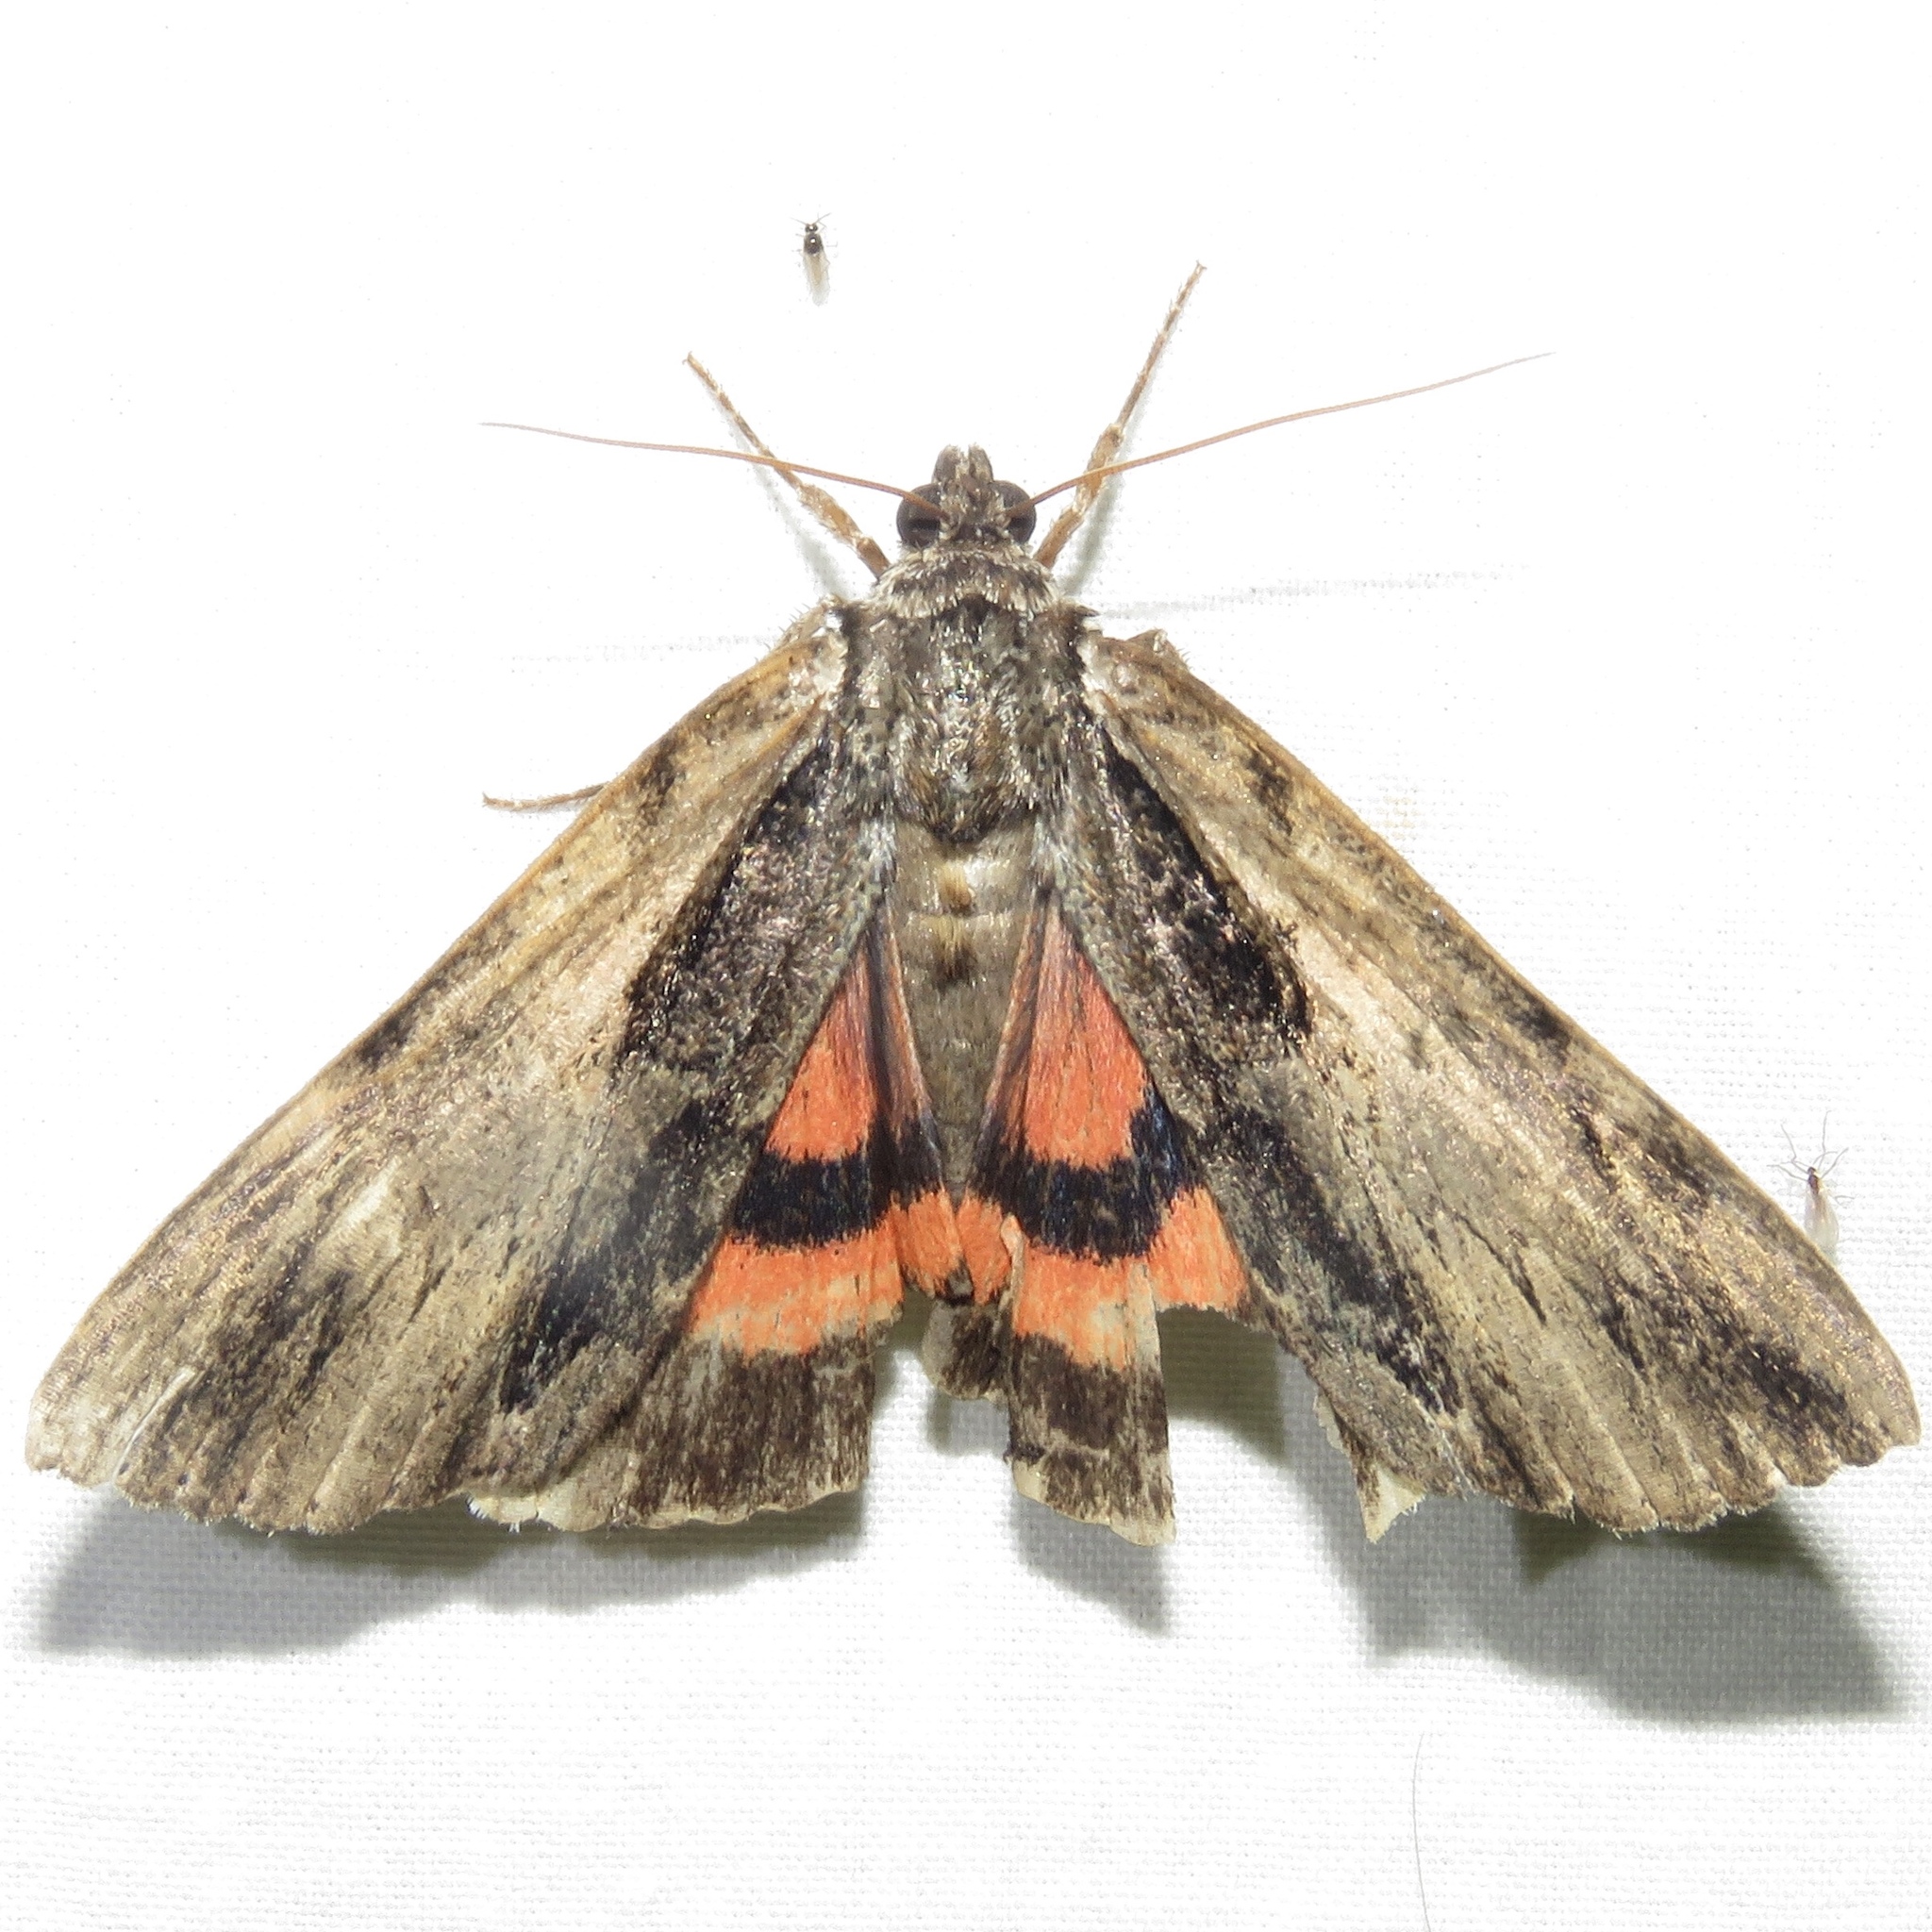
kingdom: Animalia
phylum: Arthropoda
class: Insecta
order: Lepidoptera
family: Erebidae
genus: Catocala
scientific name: Catocala ultronia
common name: Ultronia underwing
